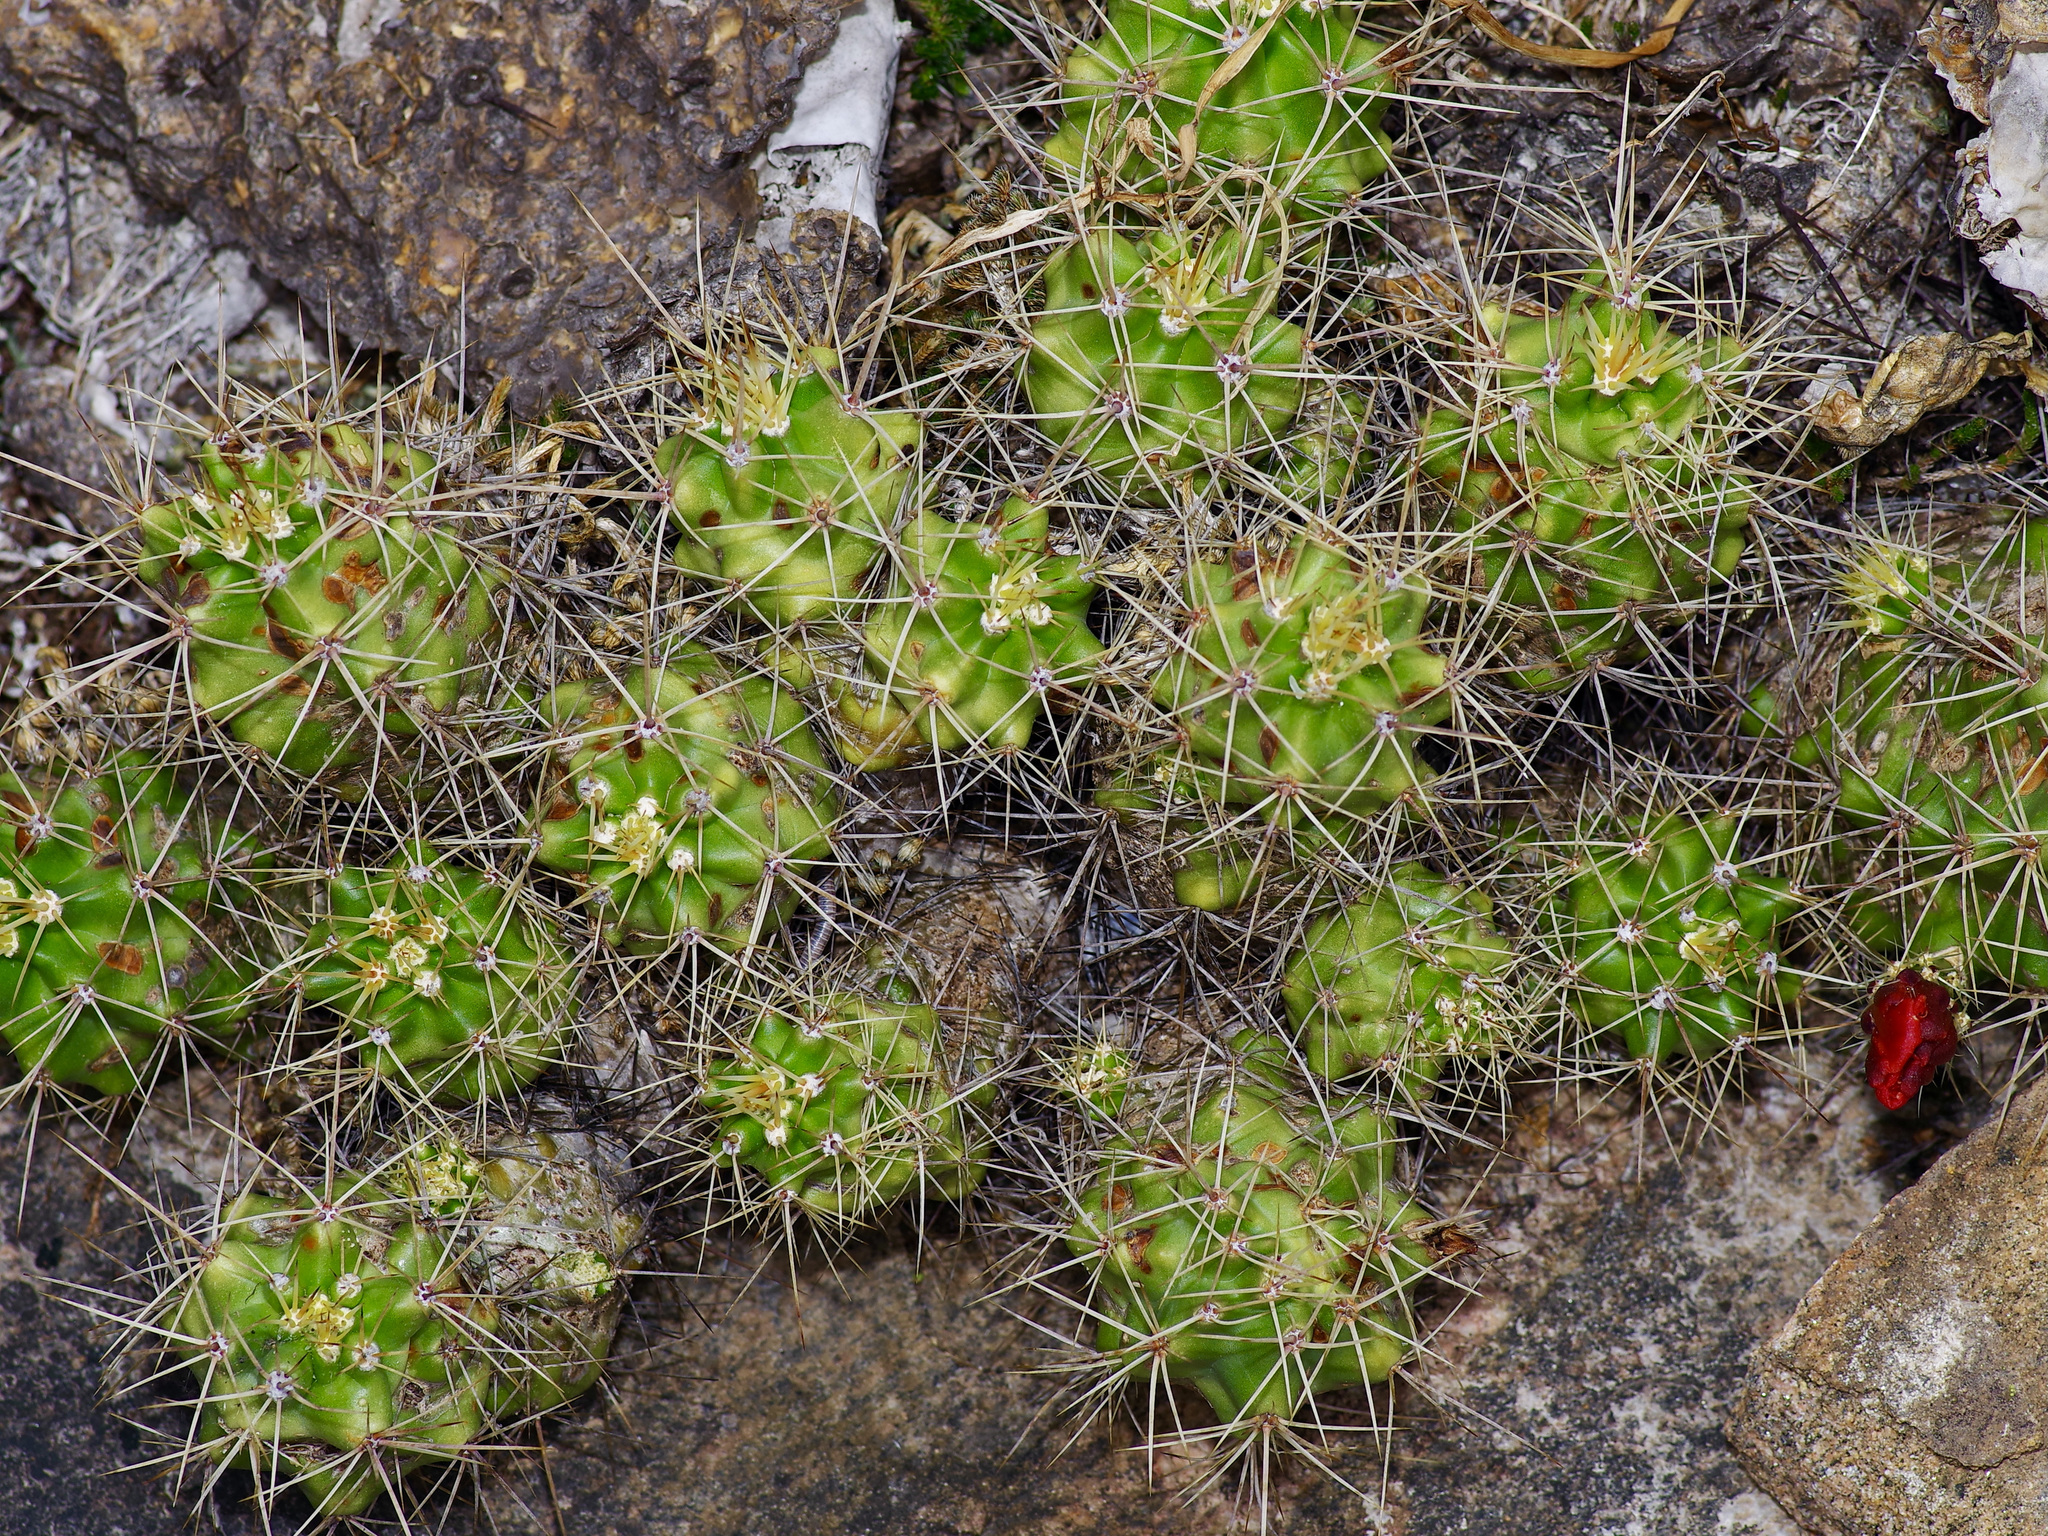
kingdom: Plantae
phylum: Tracheophyta
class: Magnoliopsida
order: Caryophyllales
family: Cactaceae
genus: Echinocereus
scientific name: Echinocereus coccineus
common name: Scarlet hedgehog cactus
